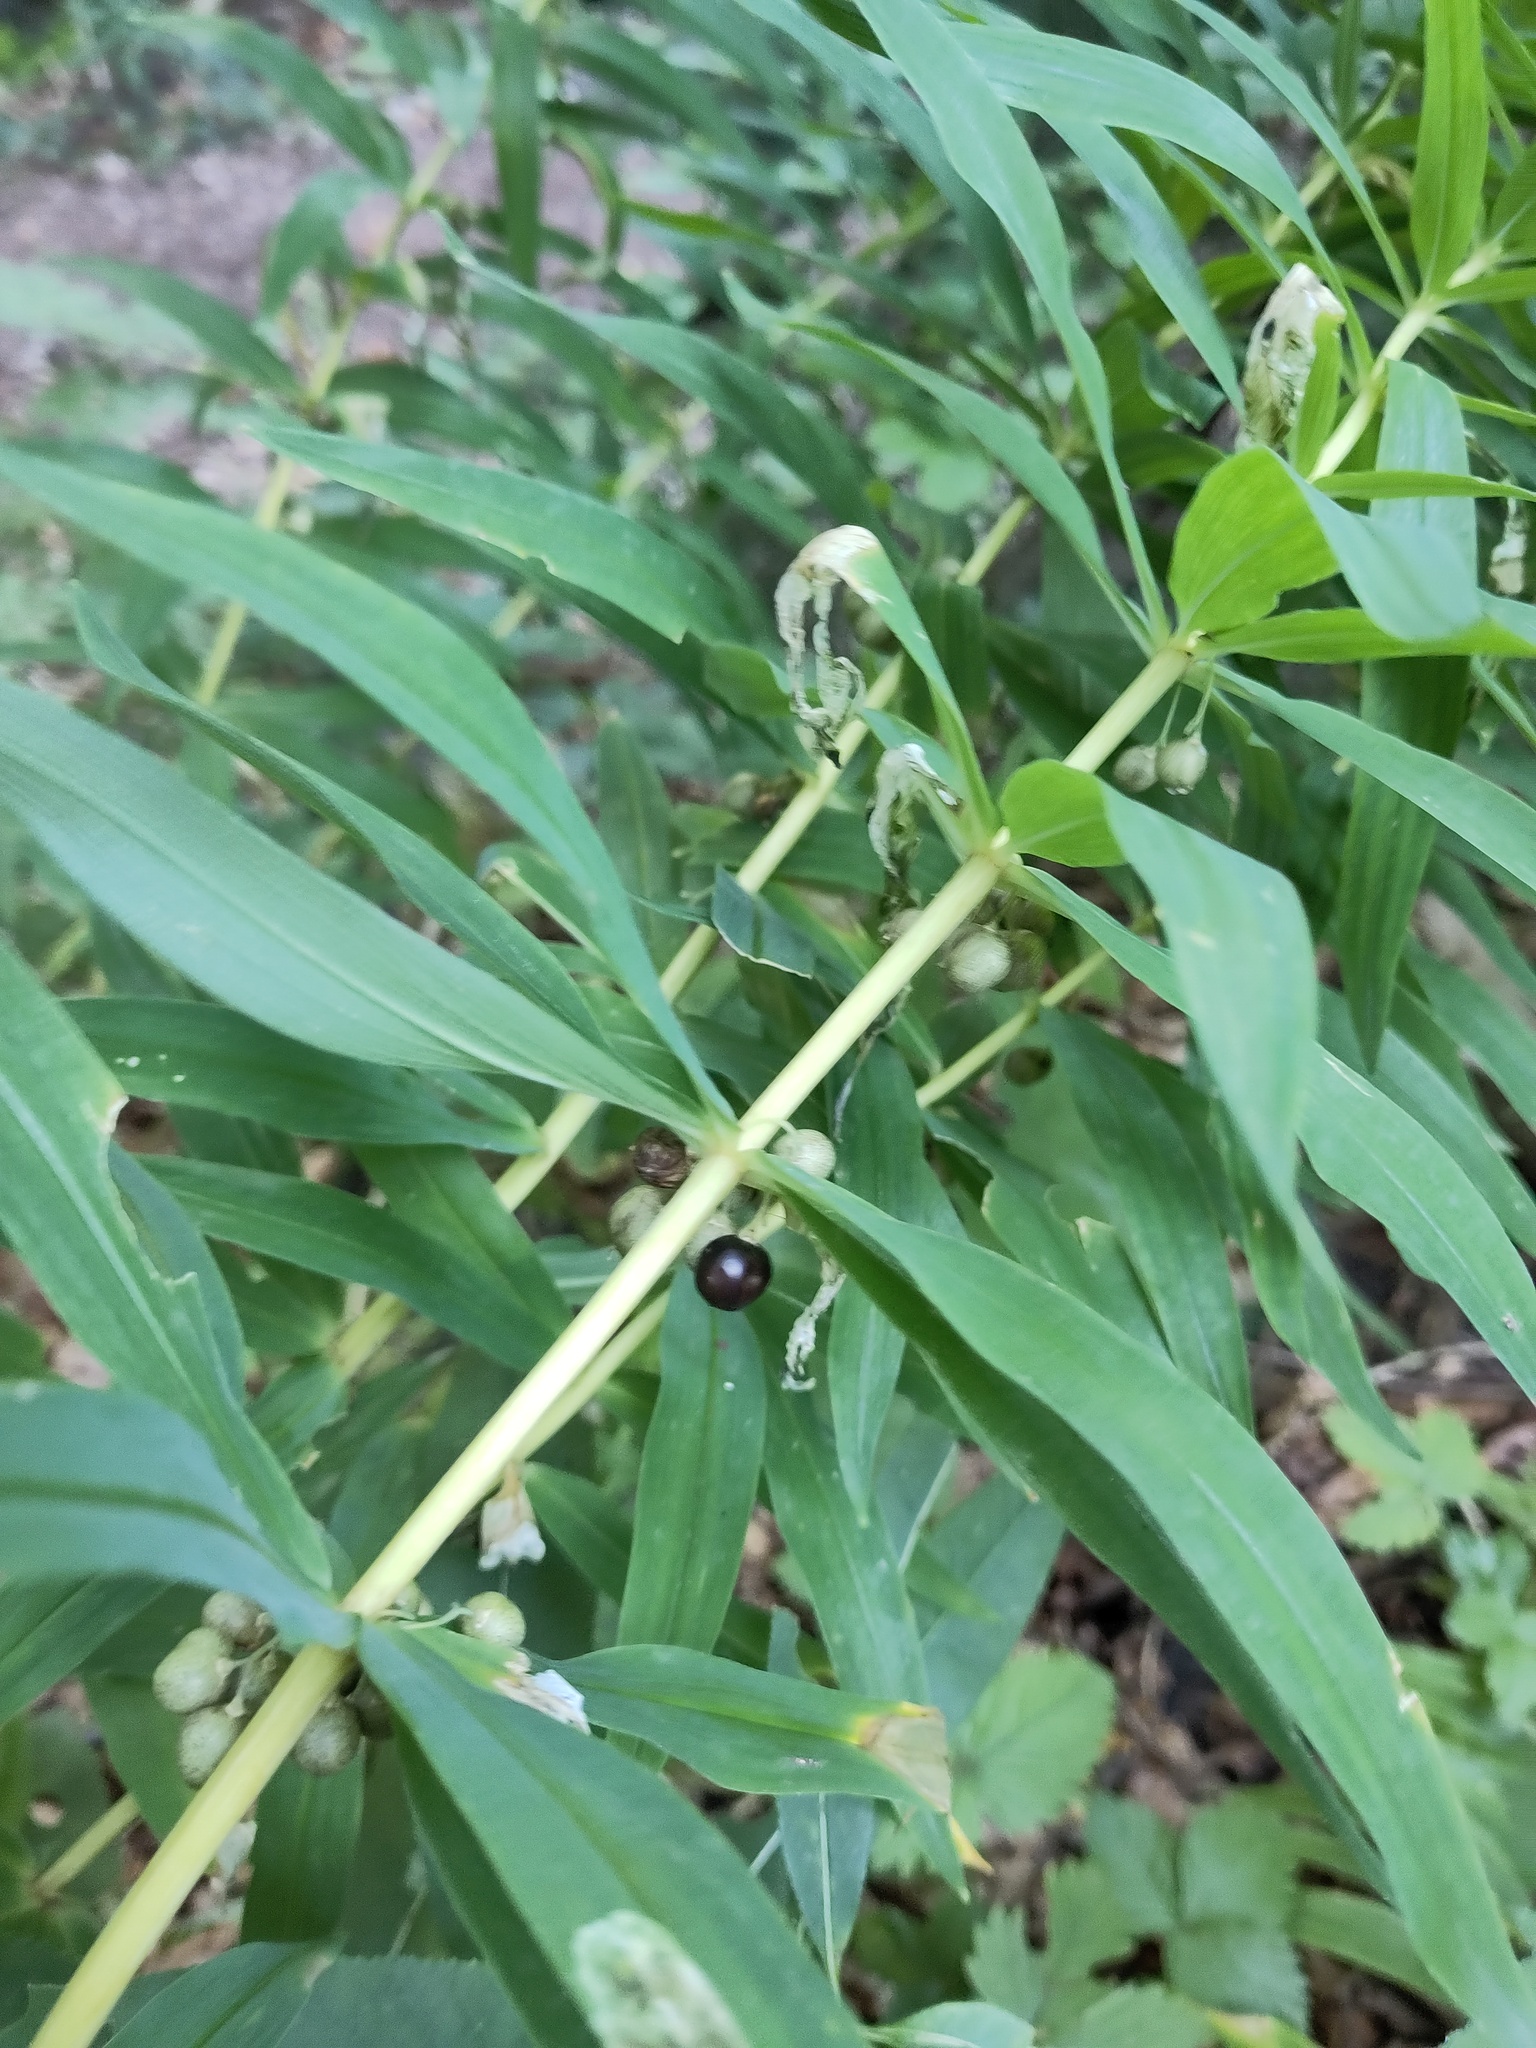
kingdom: Plantae
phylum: Tracheophyta
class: Liliopsida
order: Asparagales
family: Asparagaceae
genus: Polygonatum
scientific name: Polygonatum verticillatum
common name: Whorled solomon's-seal
